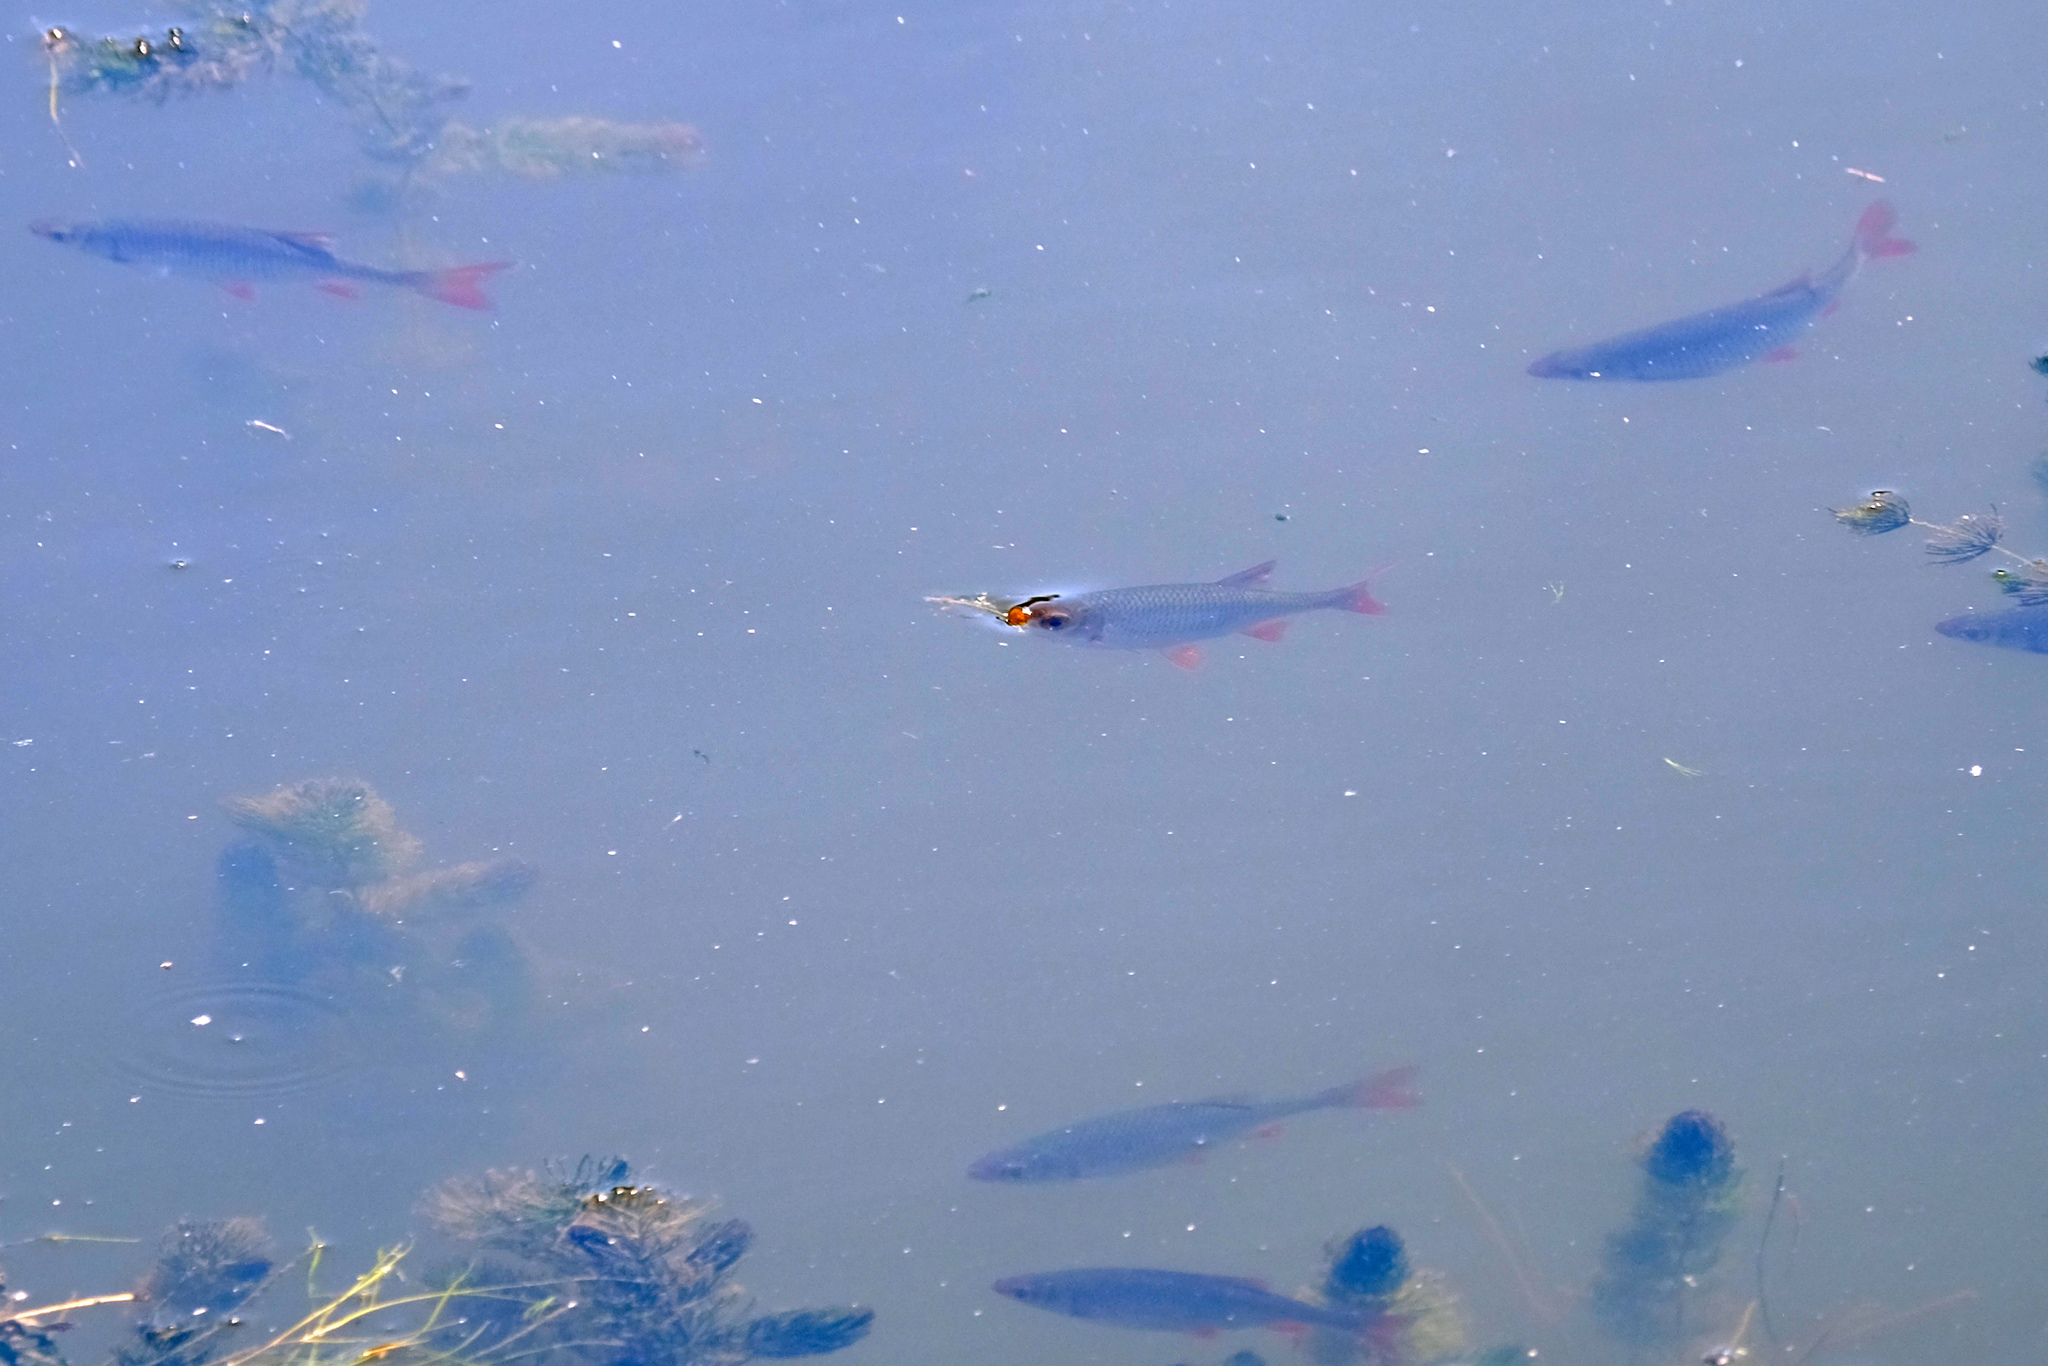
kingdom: Animalia
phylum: Chordata
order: Cypriniformes
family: Cyprinidae
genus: Scardinius
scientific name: Scardinius erythrophthalmus
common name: Rudd
